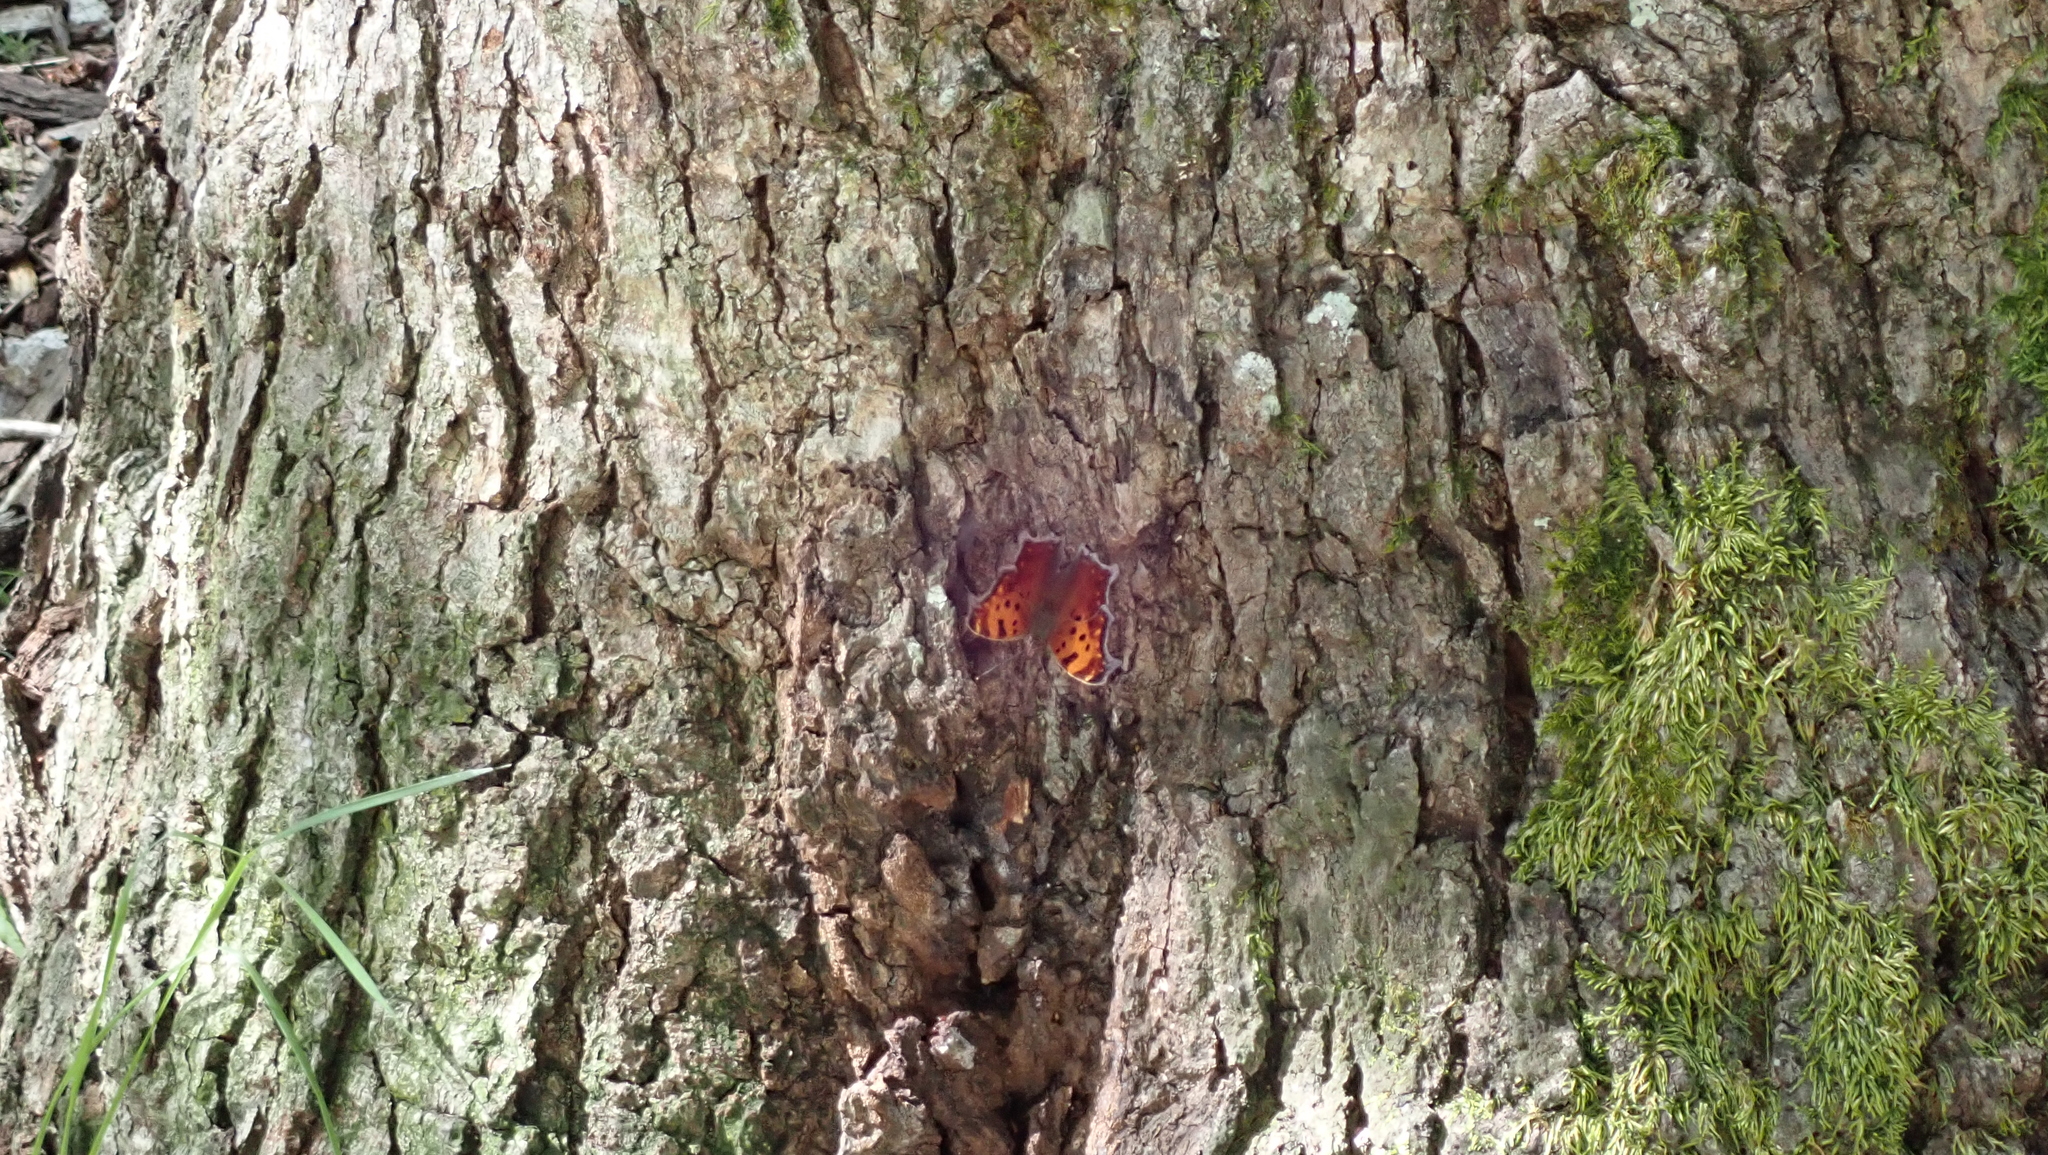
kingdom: Animalia
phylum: Arthropoda
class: Insecta
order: Lepidoptera
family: Nymphalidae
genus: Polygonia
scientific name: Polygonia comma
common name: Eastern comma
